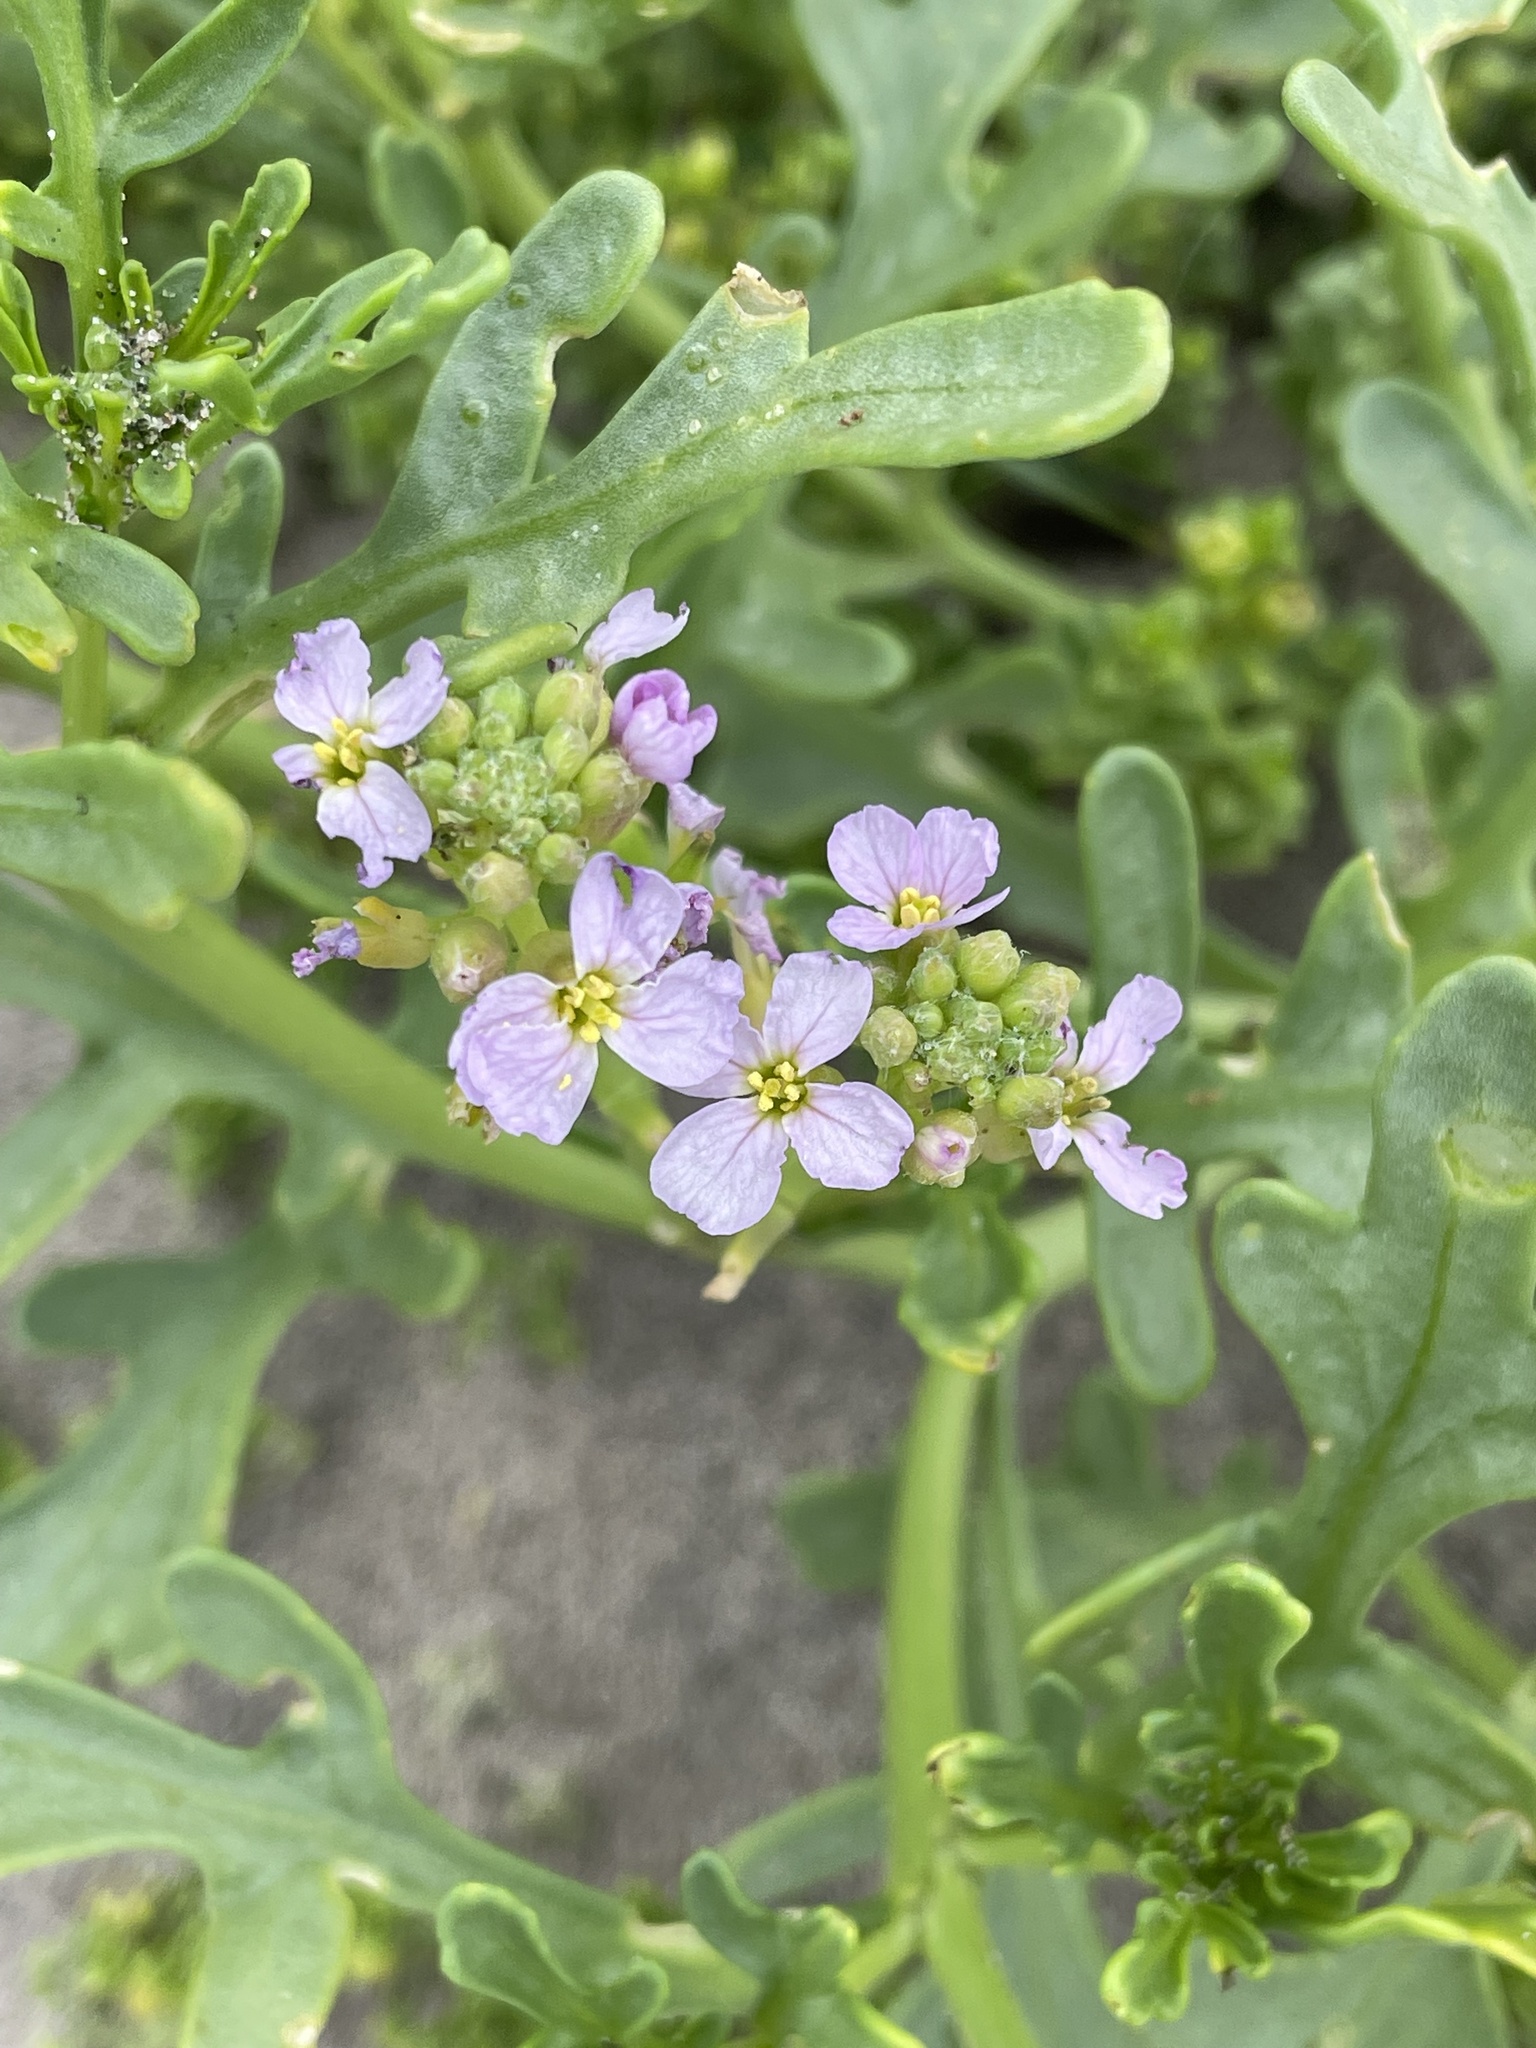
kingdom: Plantae
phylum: Tracheophyta
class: Magnoliopsida
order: Brassicales
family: Brassicaceae
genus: Cakile
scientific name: Cakile maritima
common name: Sea rocket
